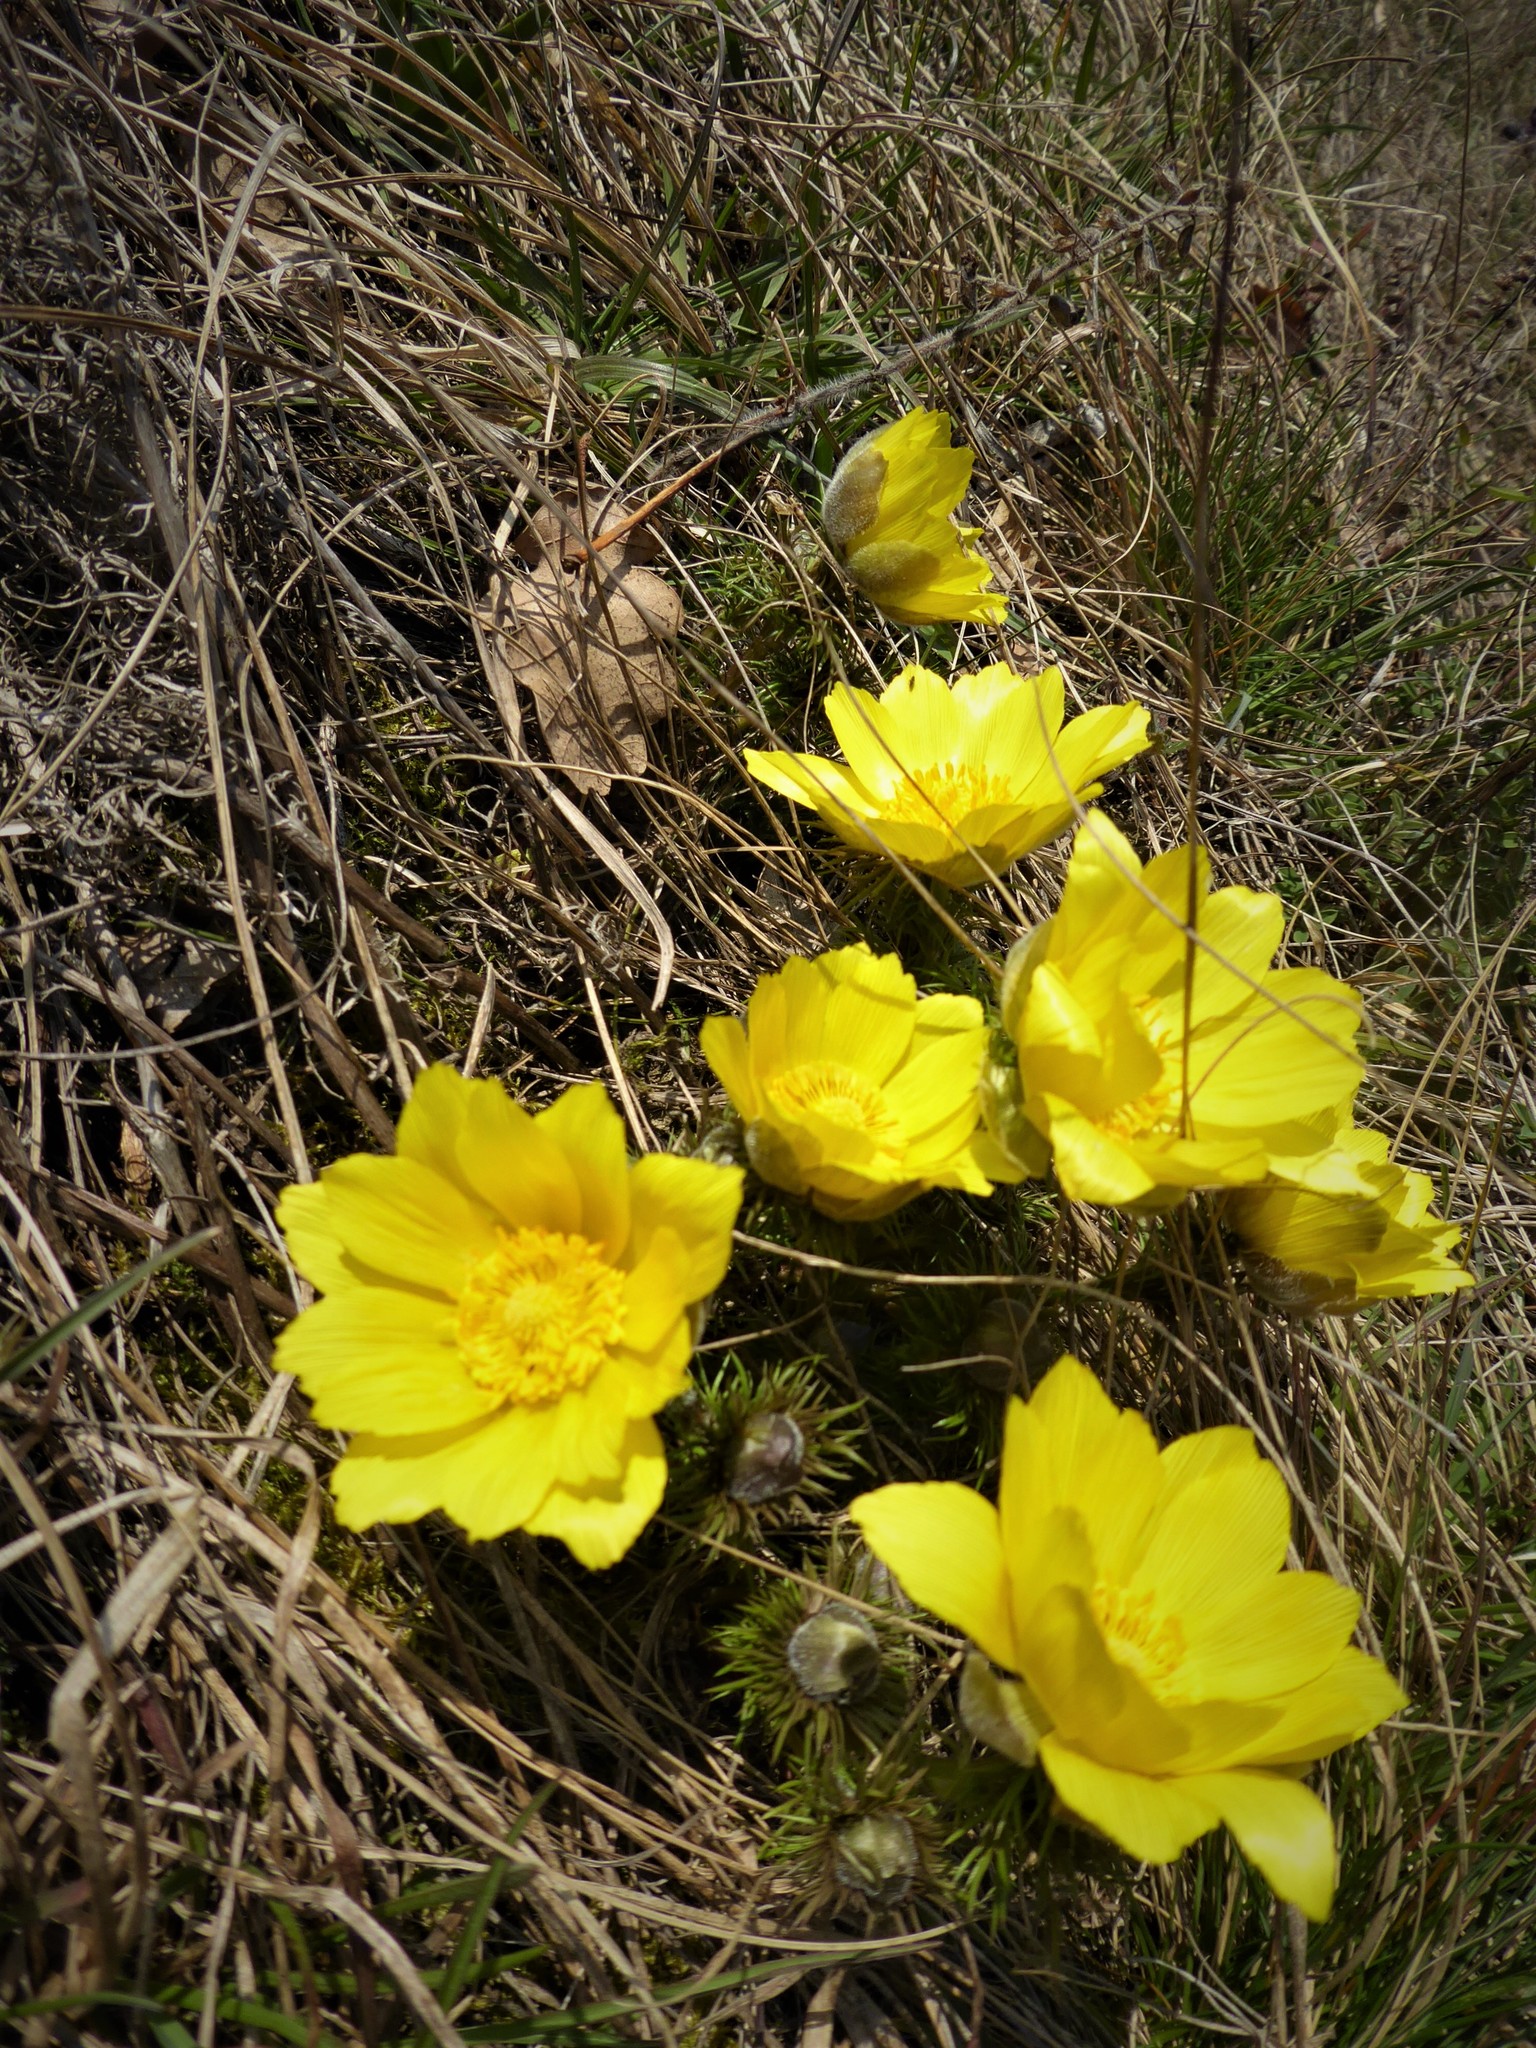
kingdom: Plantae
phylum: Tracheophyta
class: Magnoliopsida
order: Ranunculales
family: Ranunculaceae
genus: Adonis
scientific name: Adonis vernalis
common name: Yellow pheasants-eye
